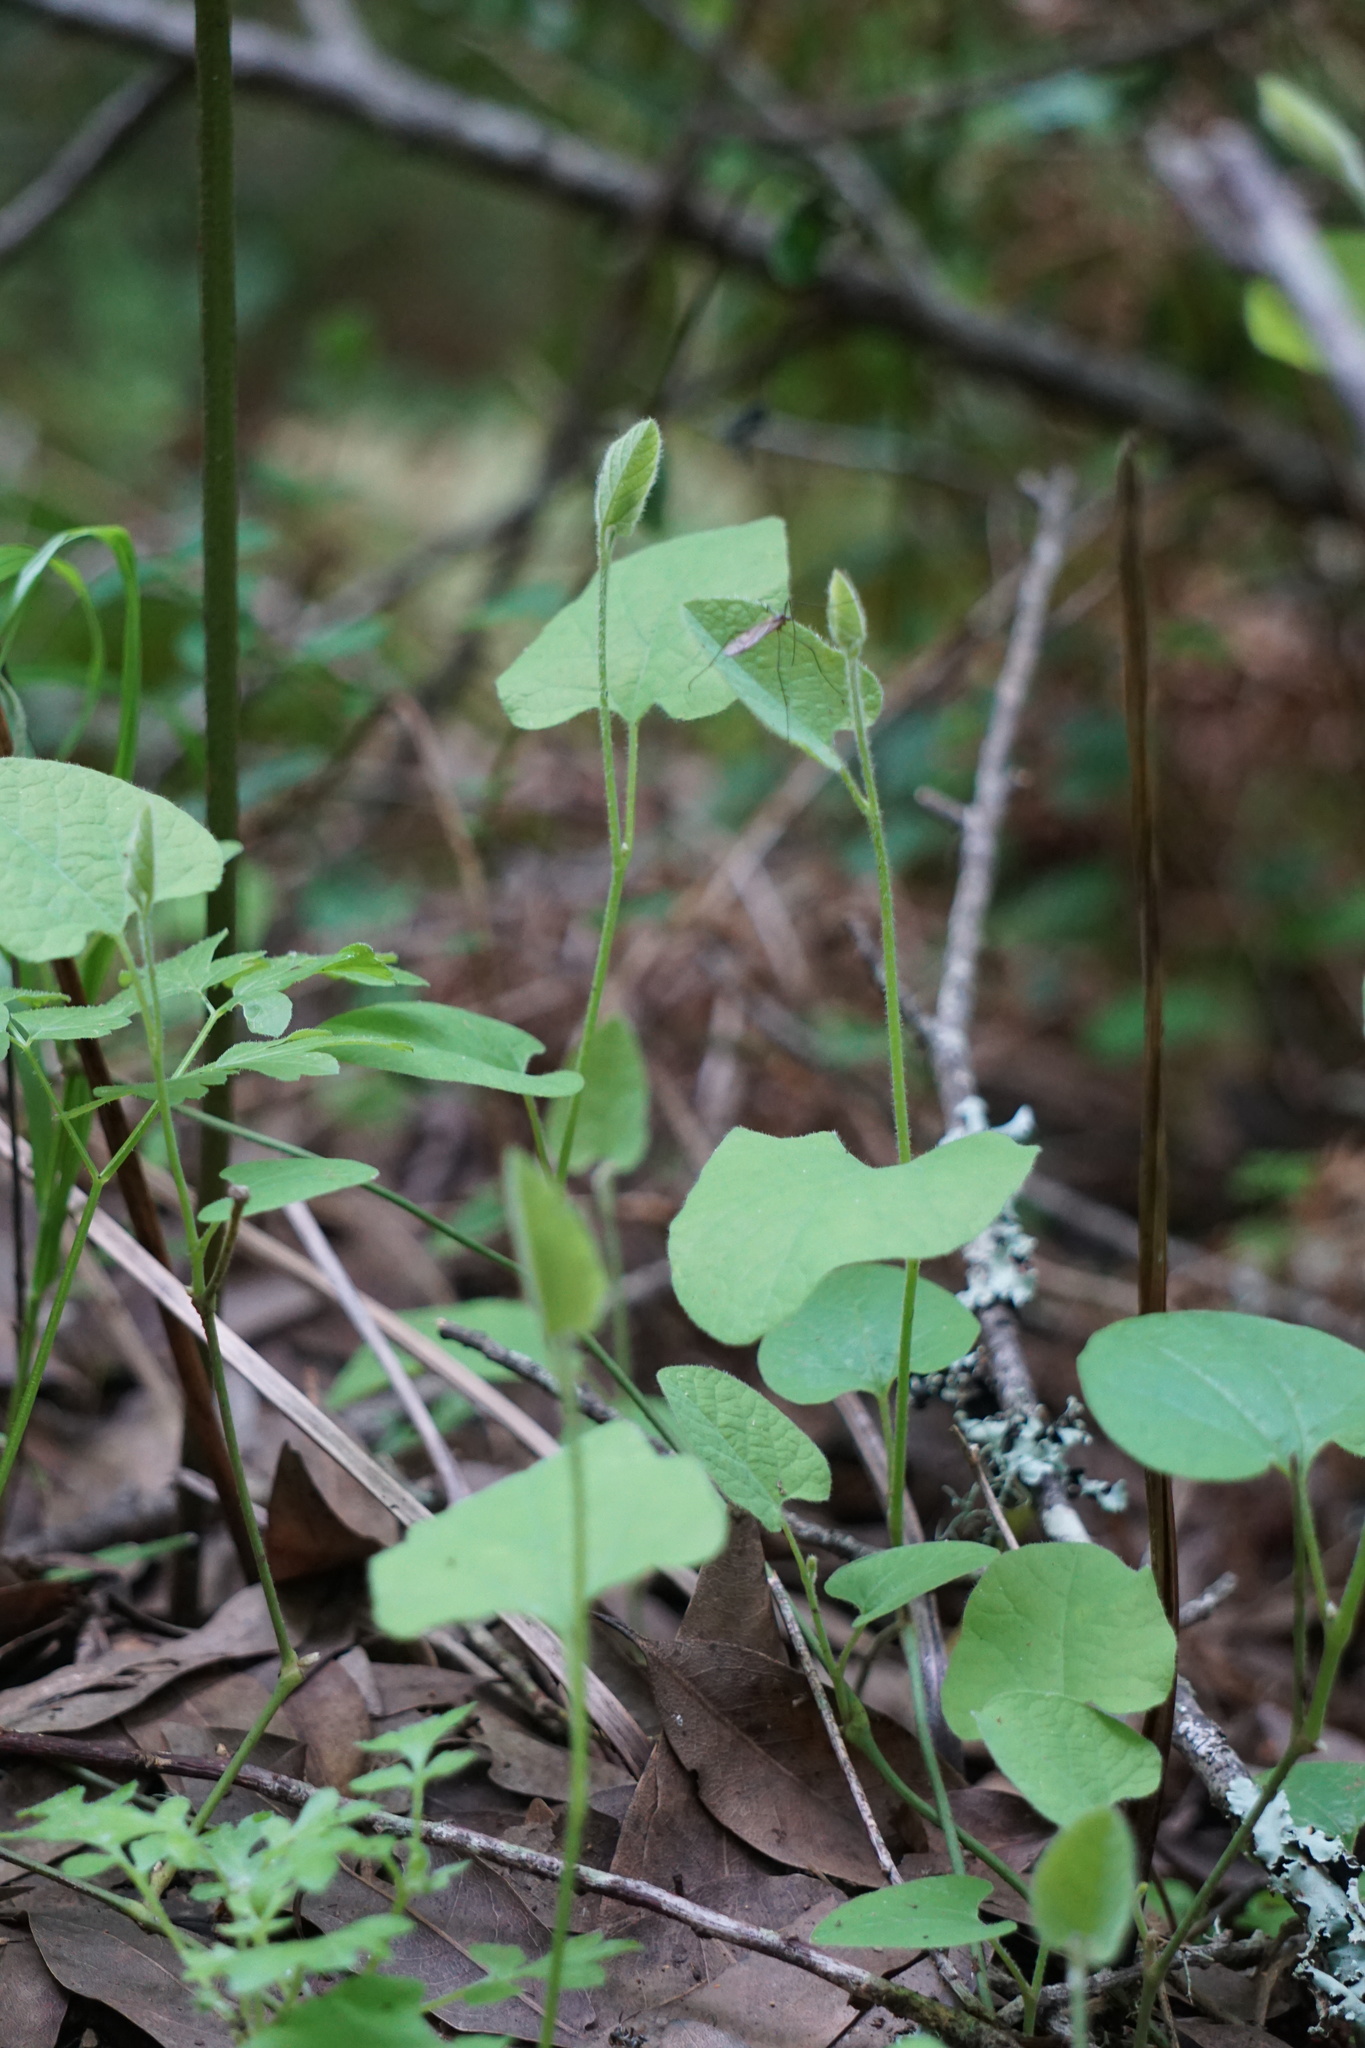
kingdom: Plantae
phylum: Tracheophyta
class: Magnoliopsida
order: Piperales
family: Aristolochiaceae
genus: Isotrema
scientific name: Isotrema californicum
